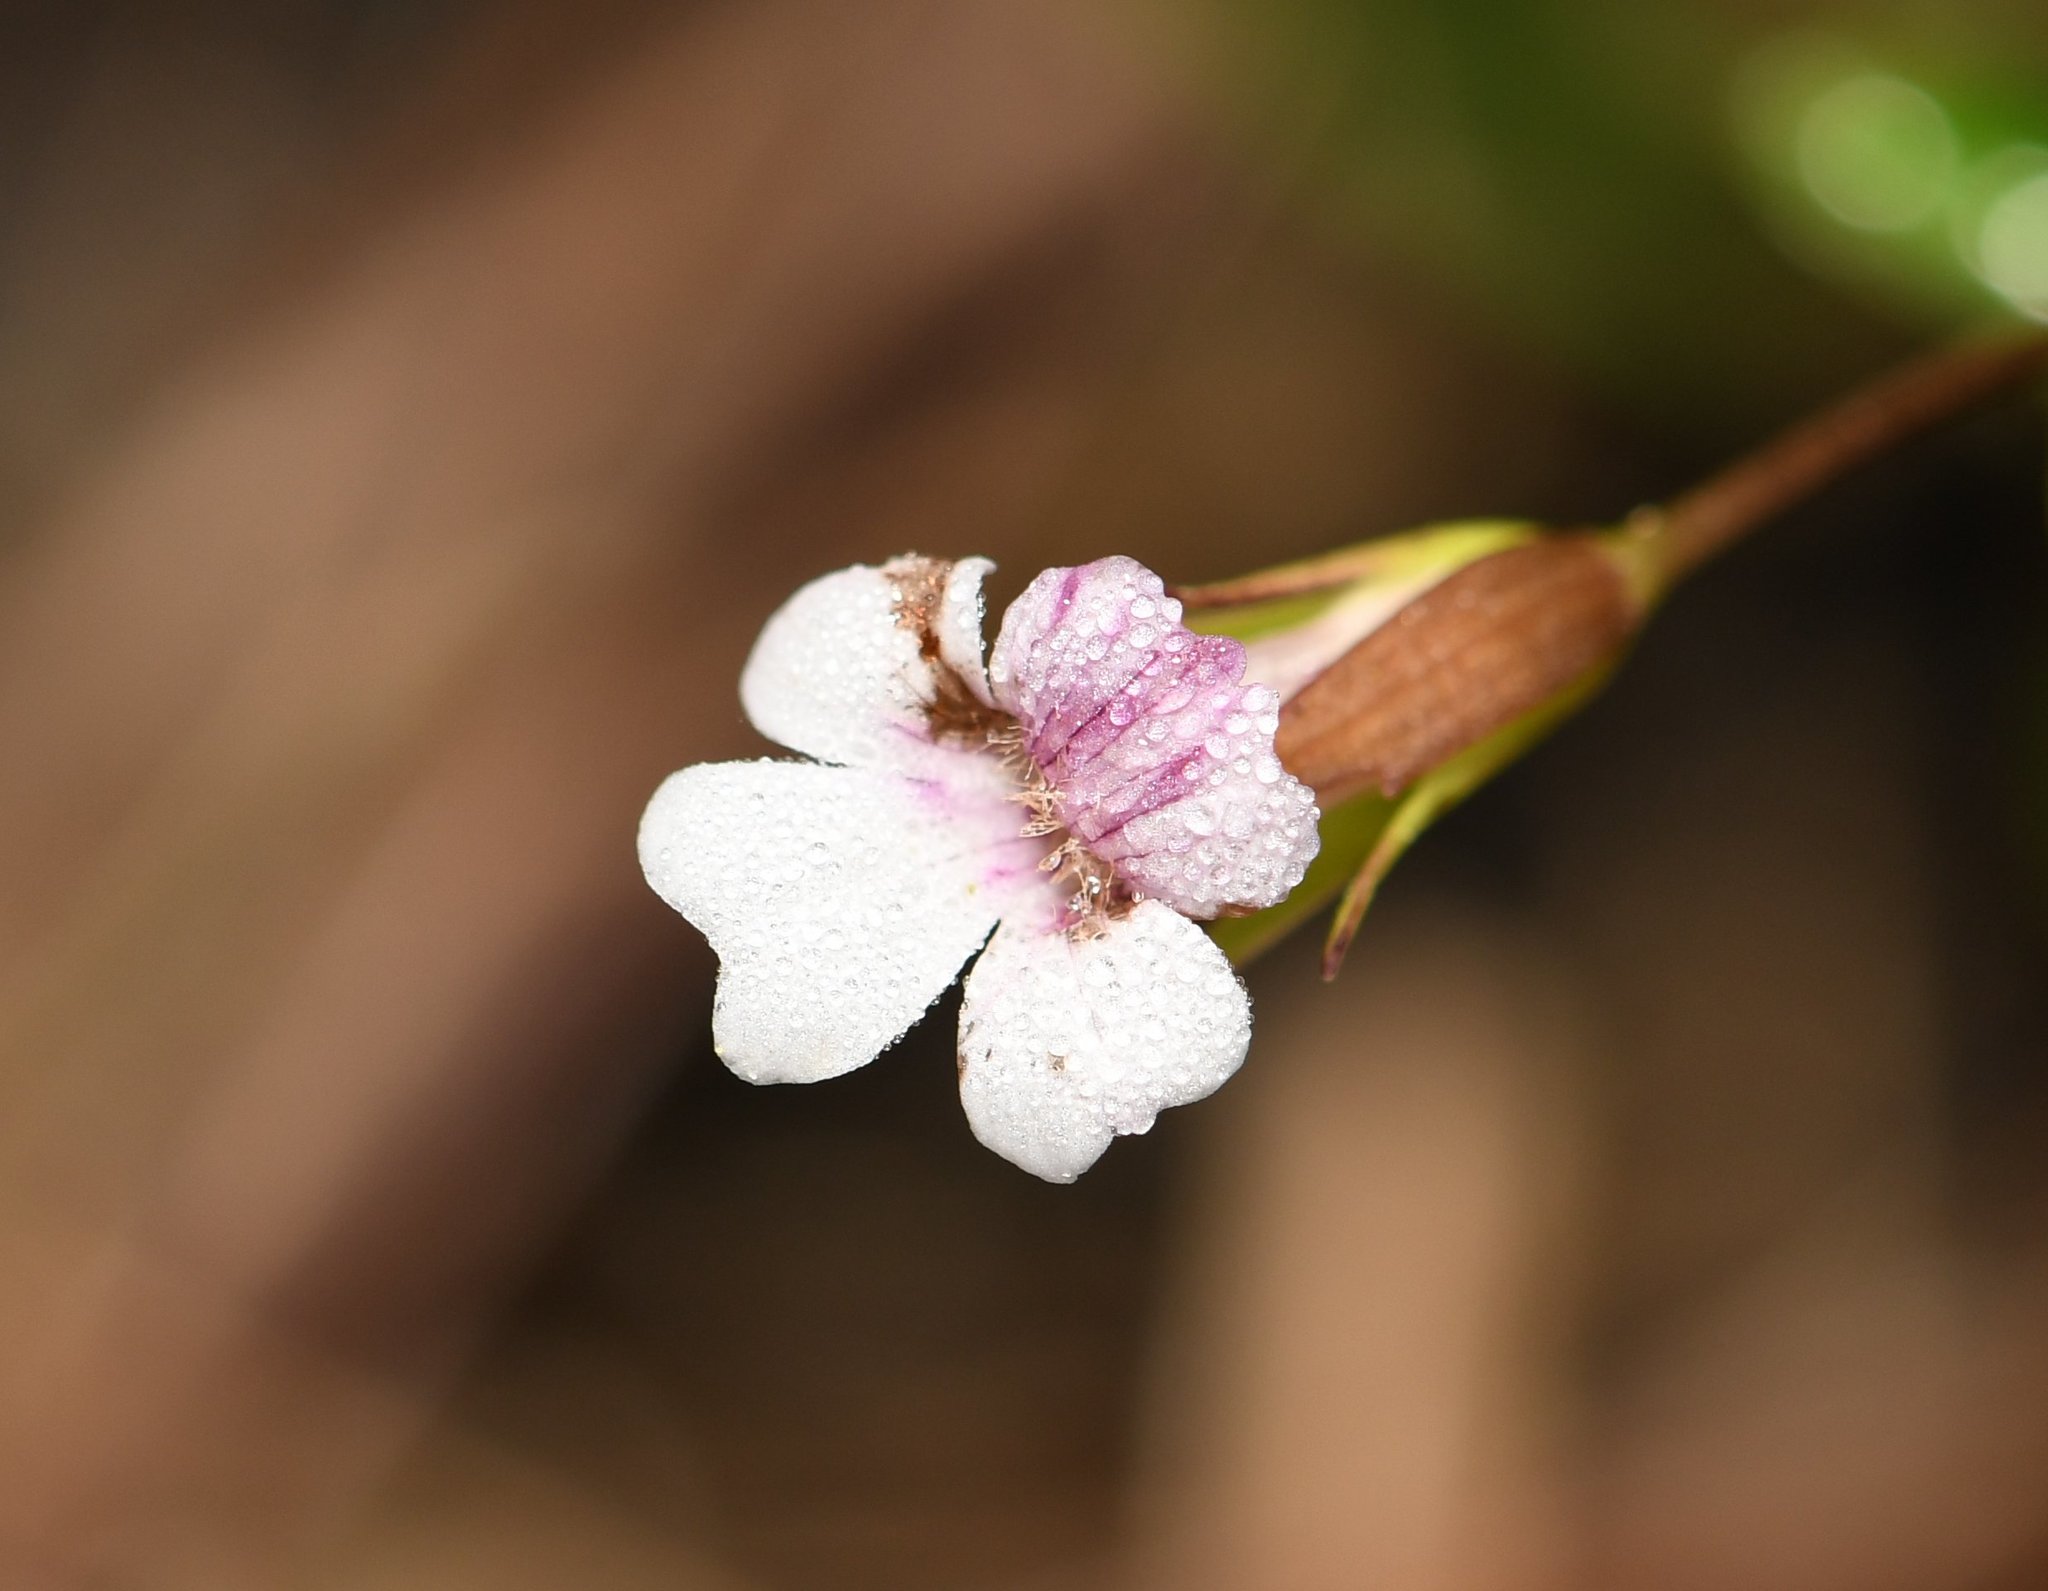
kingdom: Plantae
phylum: Tracheophyta
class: Magnoliopsida
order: Lamiales
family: Plantaginaceae
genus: Mecardonia
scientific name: Mecardonia acuminata
